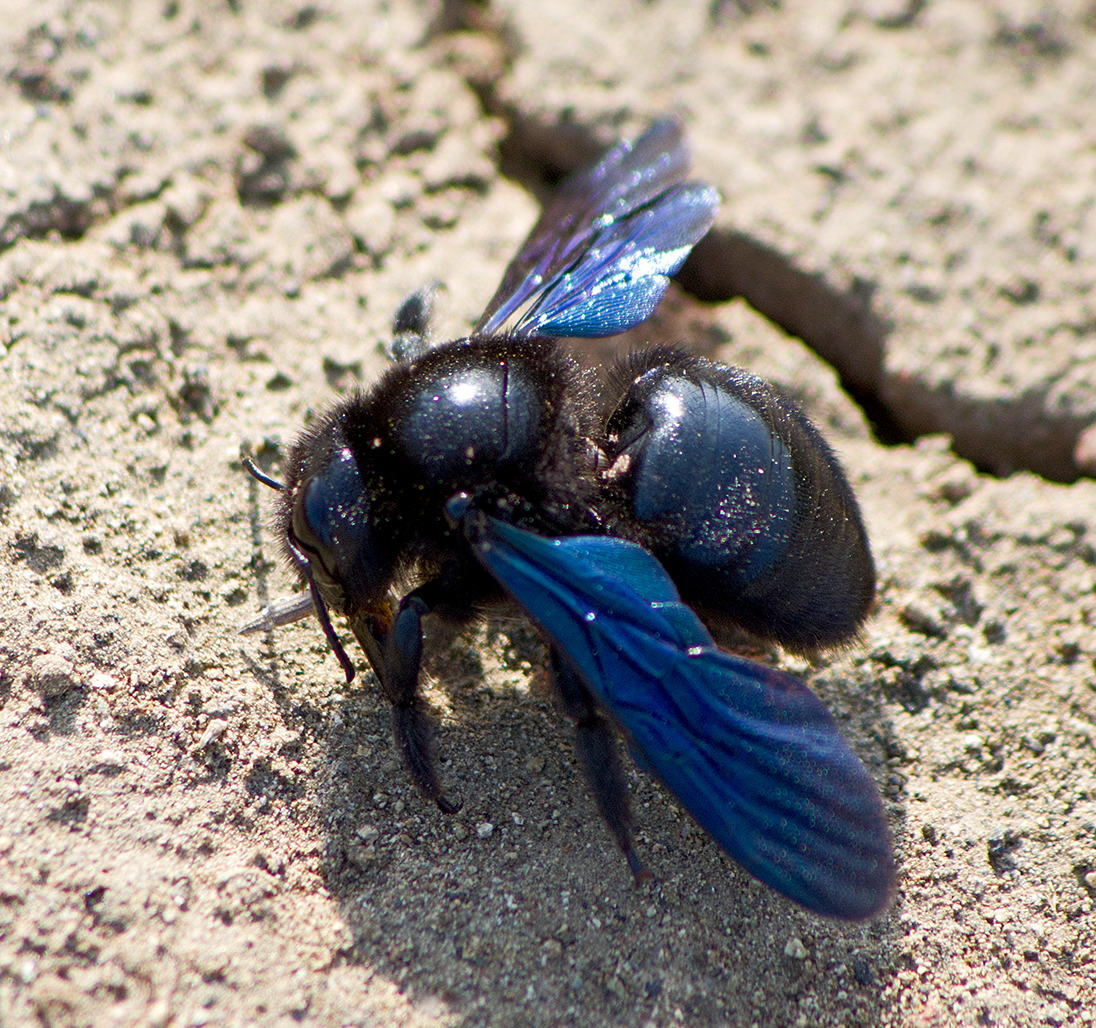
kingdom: Animalia
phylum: Arthropoda
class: Insecta
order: Hymenoptera
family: Apidae
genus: Xylocopa
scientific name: Xylocopa violacea
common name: Violet carpenter bee
